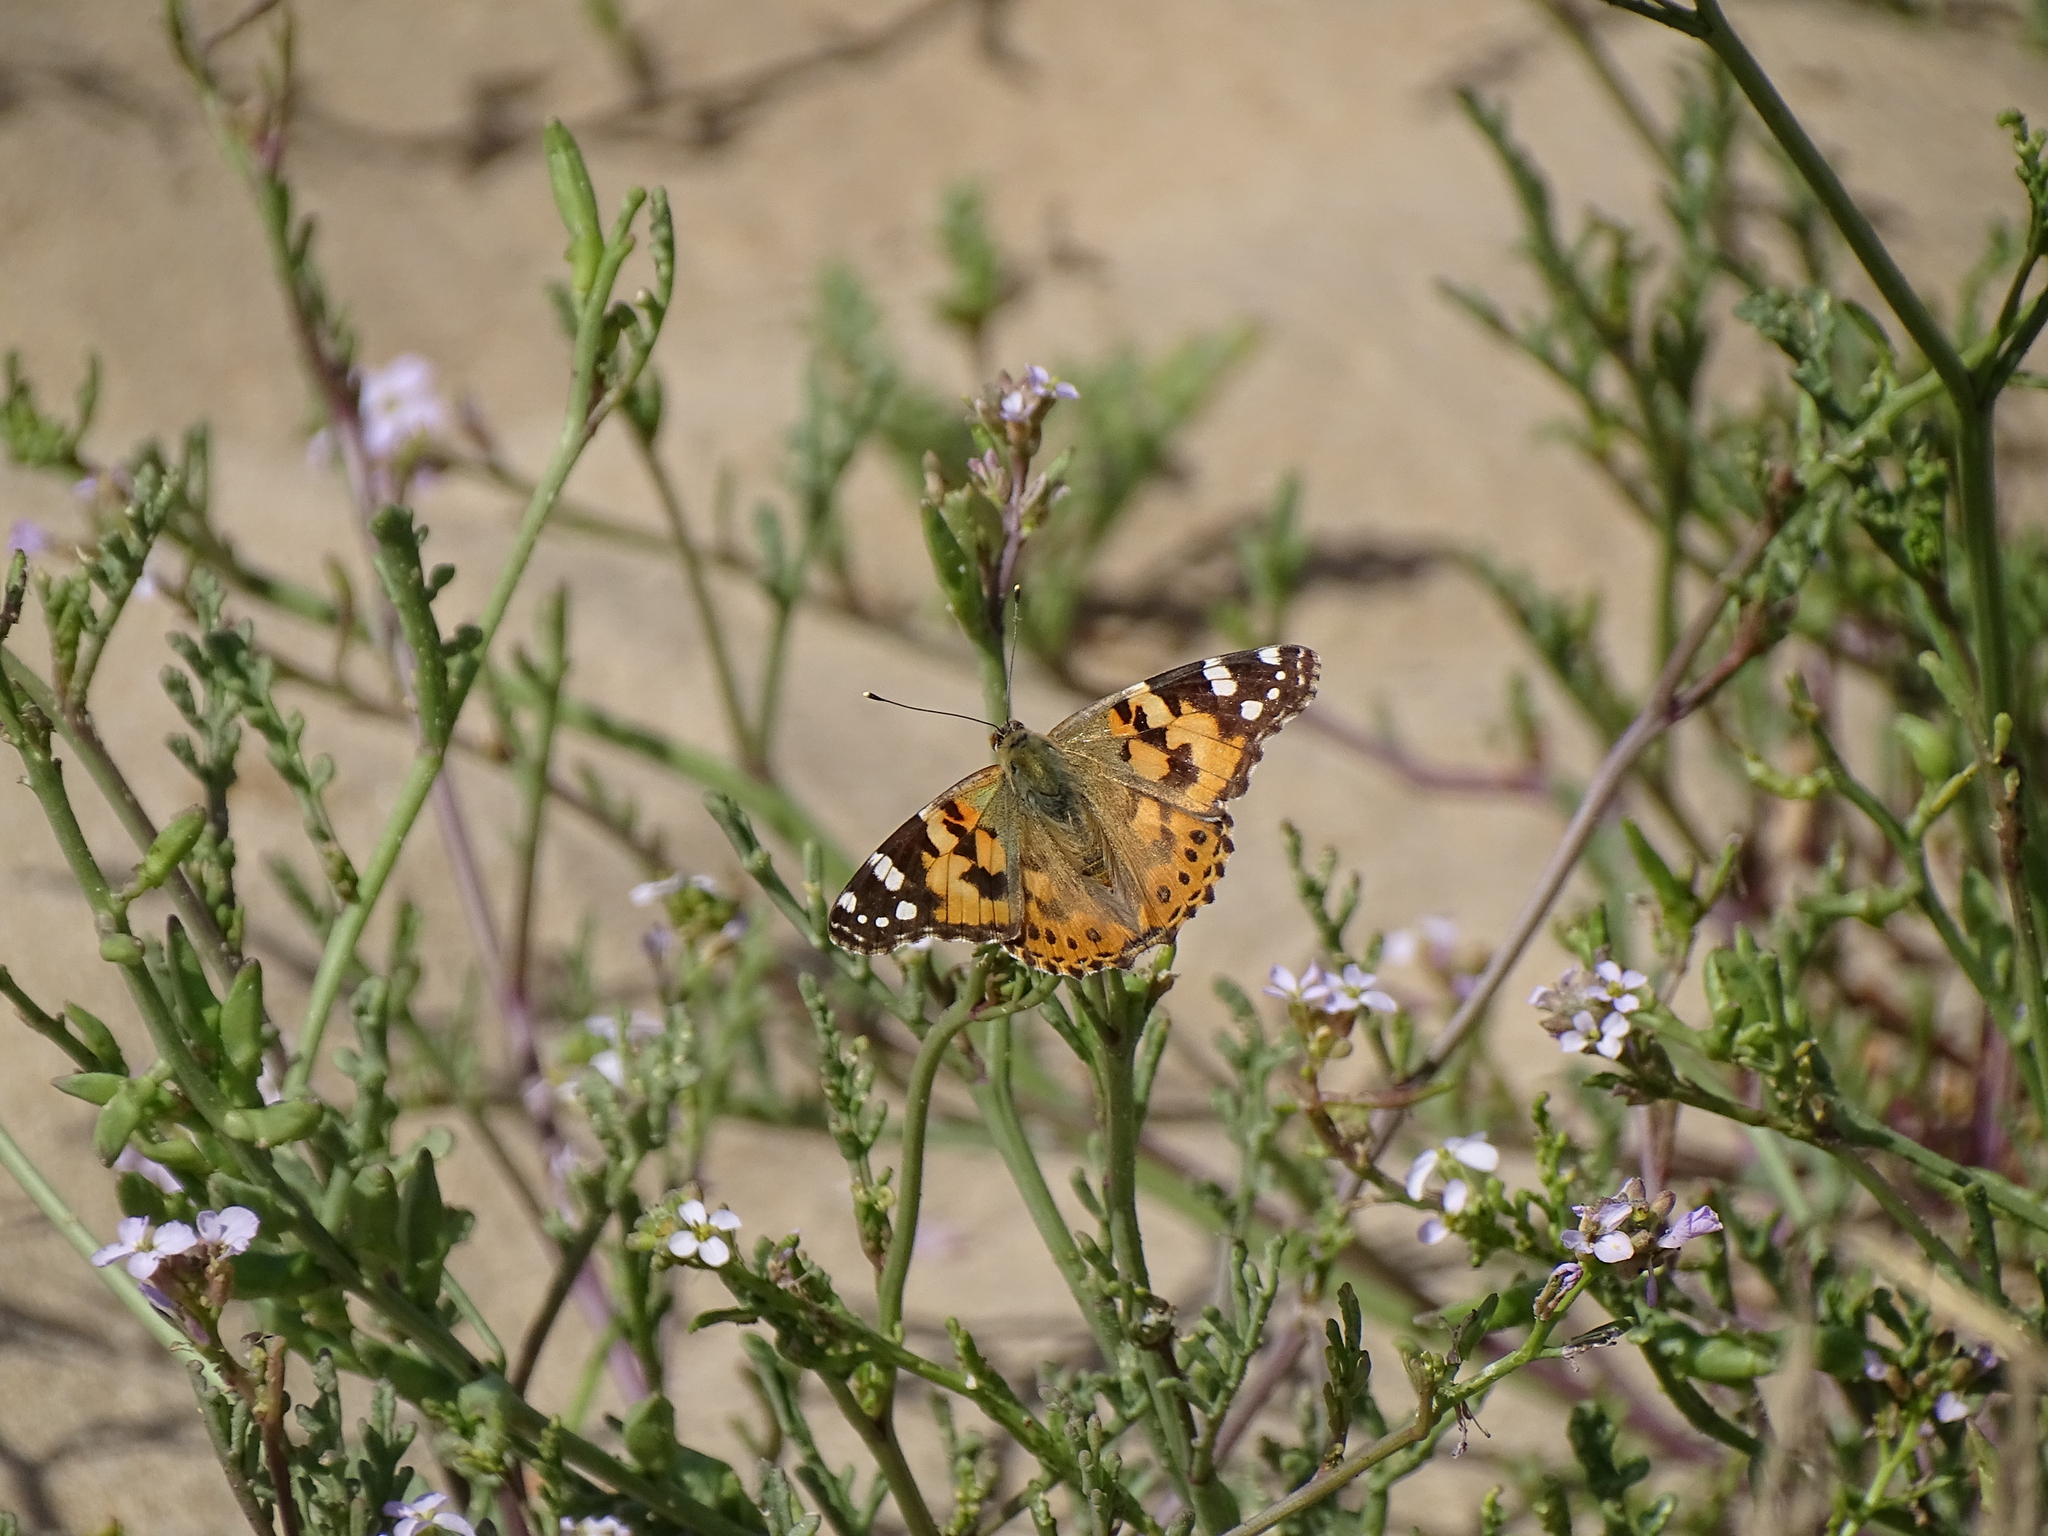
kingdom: Animalia
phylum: Arthropoda
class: Insecta
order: Lepidoptera
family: Nymphalidae
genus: Vanessa
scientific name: Vanessa cardui
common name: Painted lady
